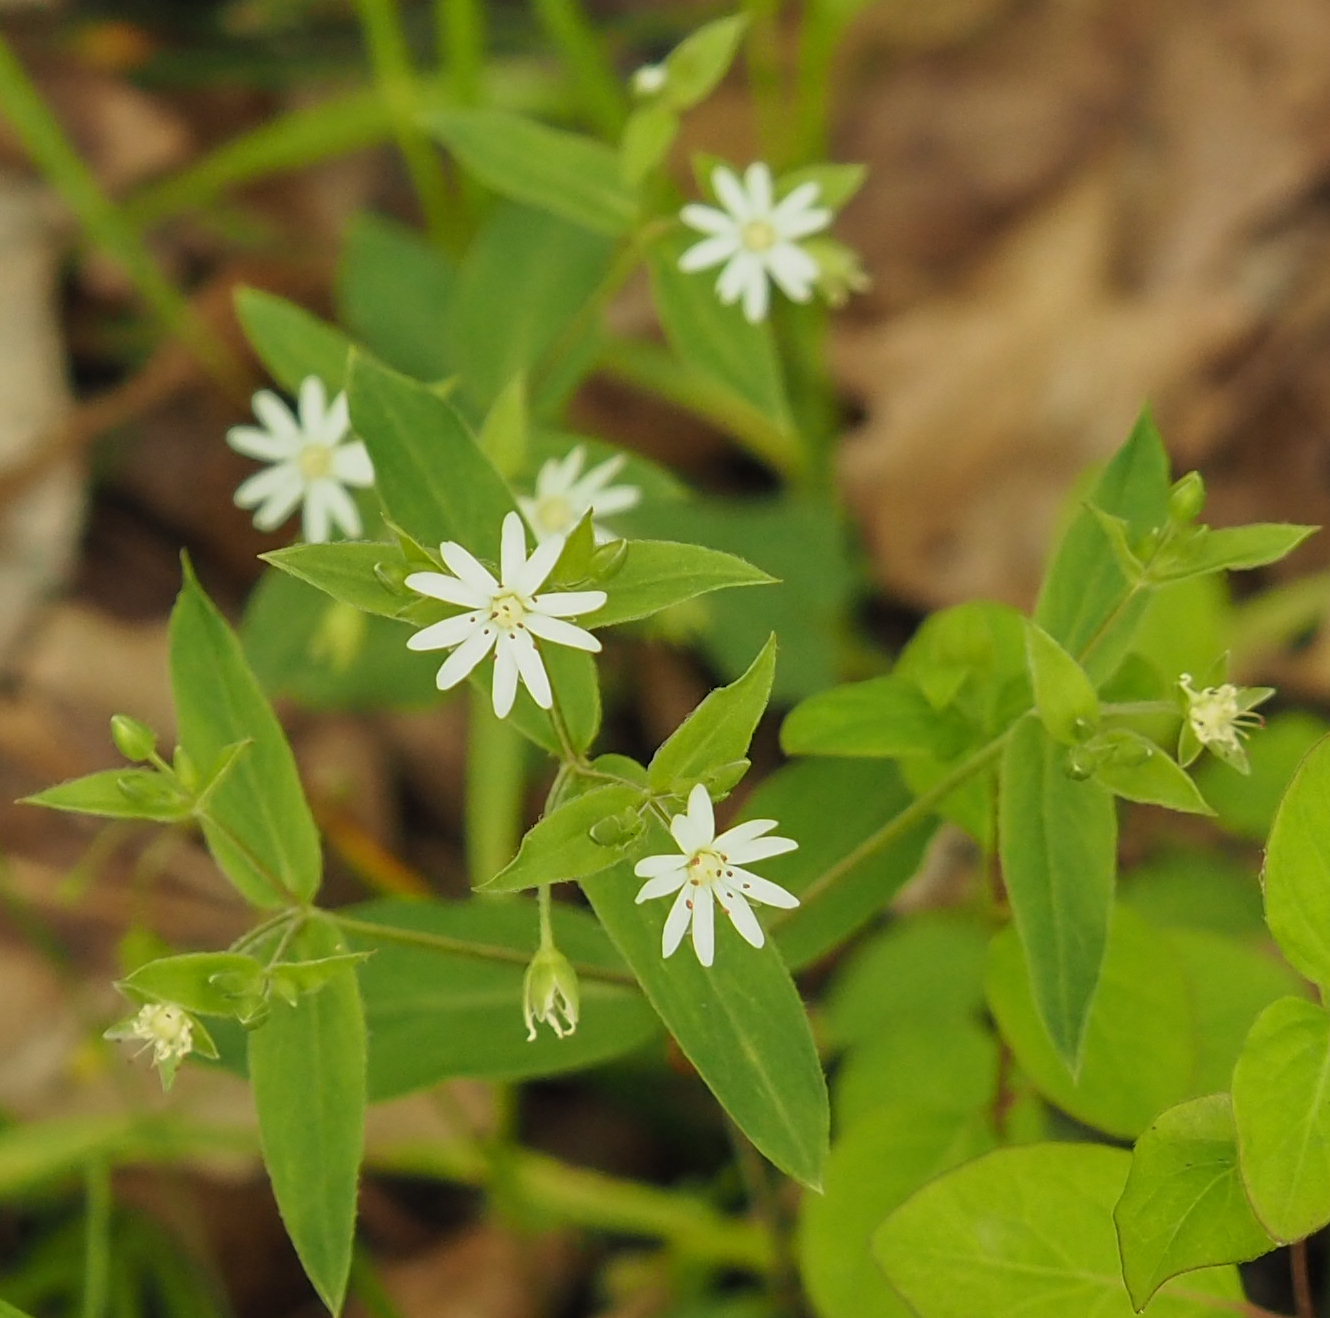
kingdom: Plantae
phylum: Tracheophyta
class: Magnoliopsida
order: Caryophyllales
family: Caryophyllaceae
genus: Stellaria
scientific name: Stellaria pubera
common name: Star chickweed
